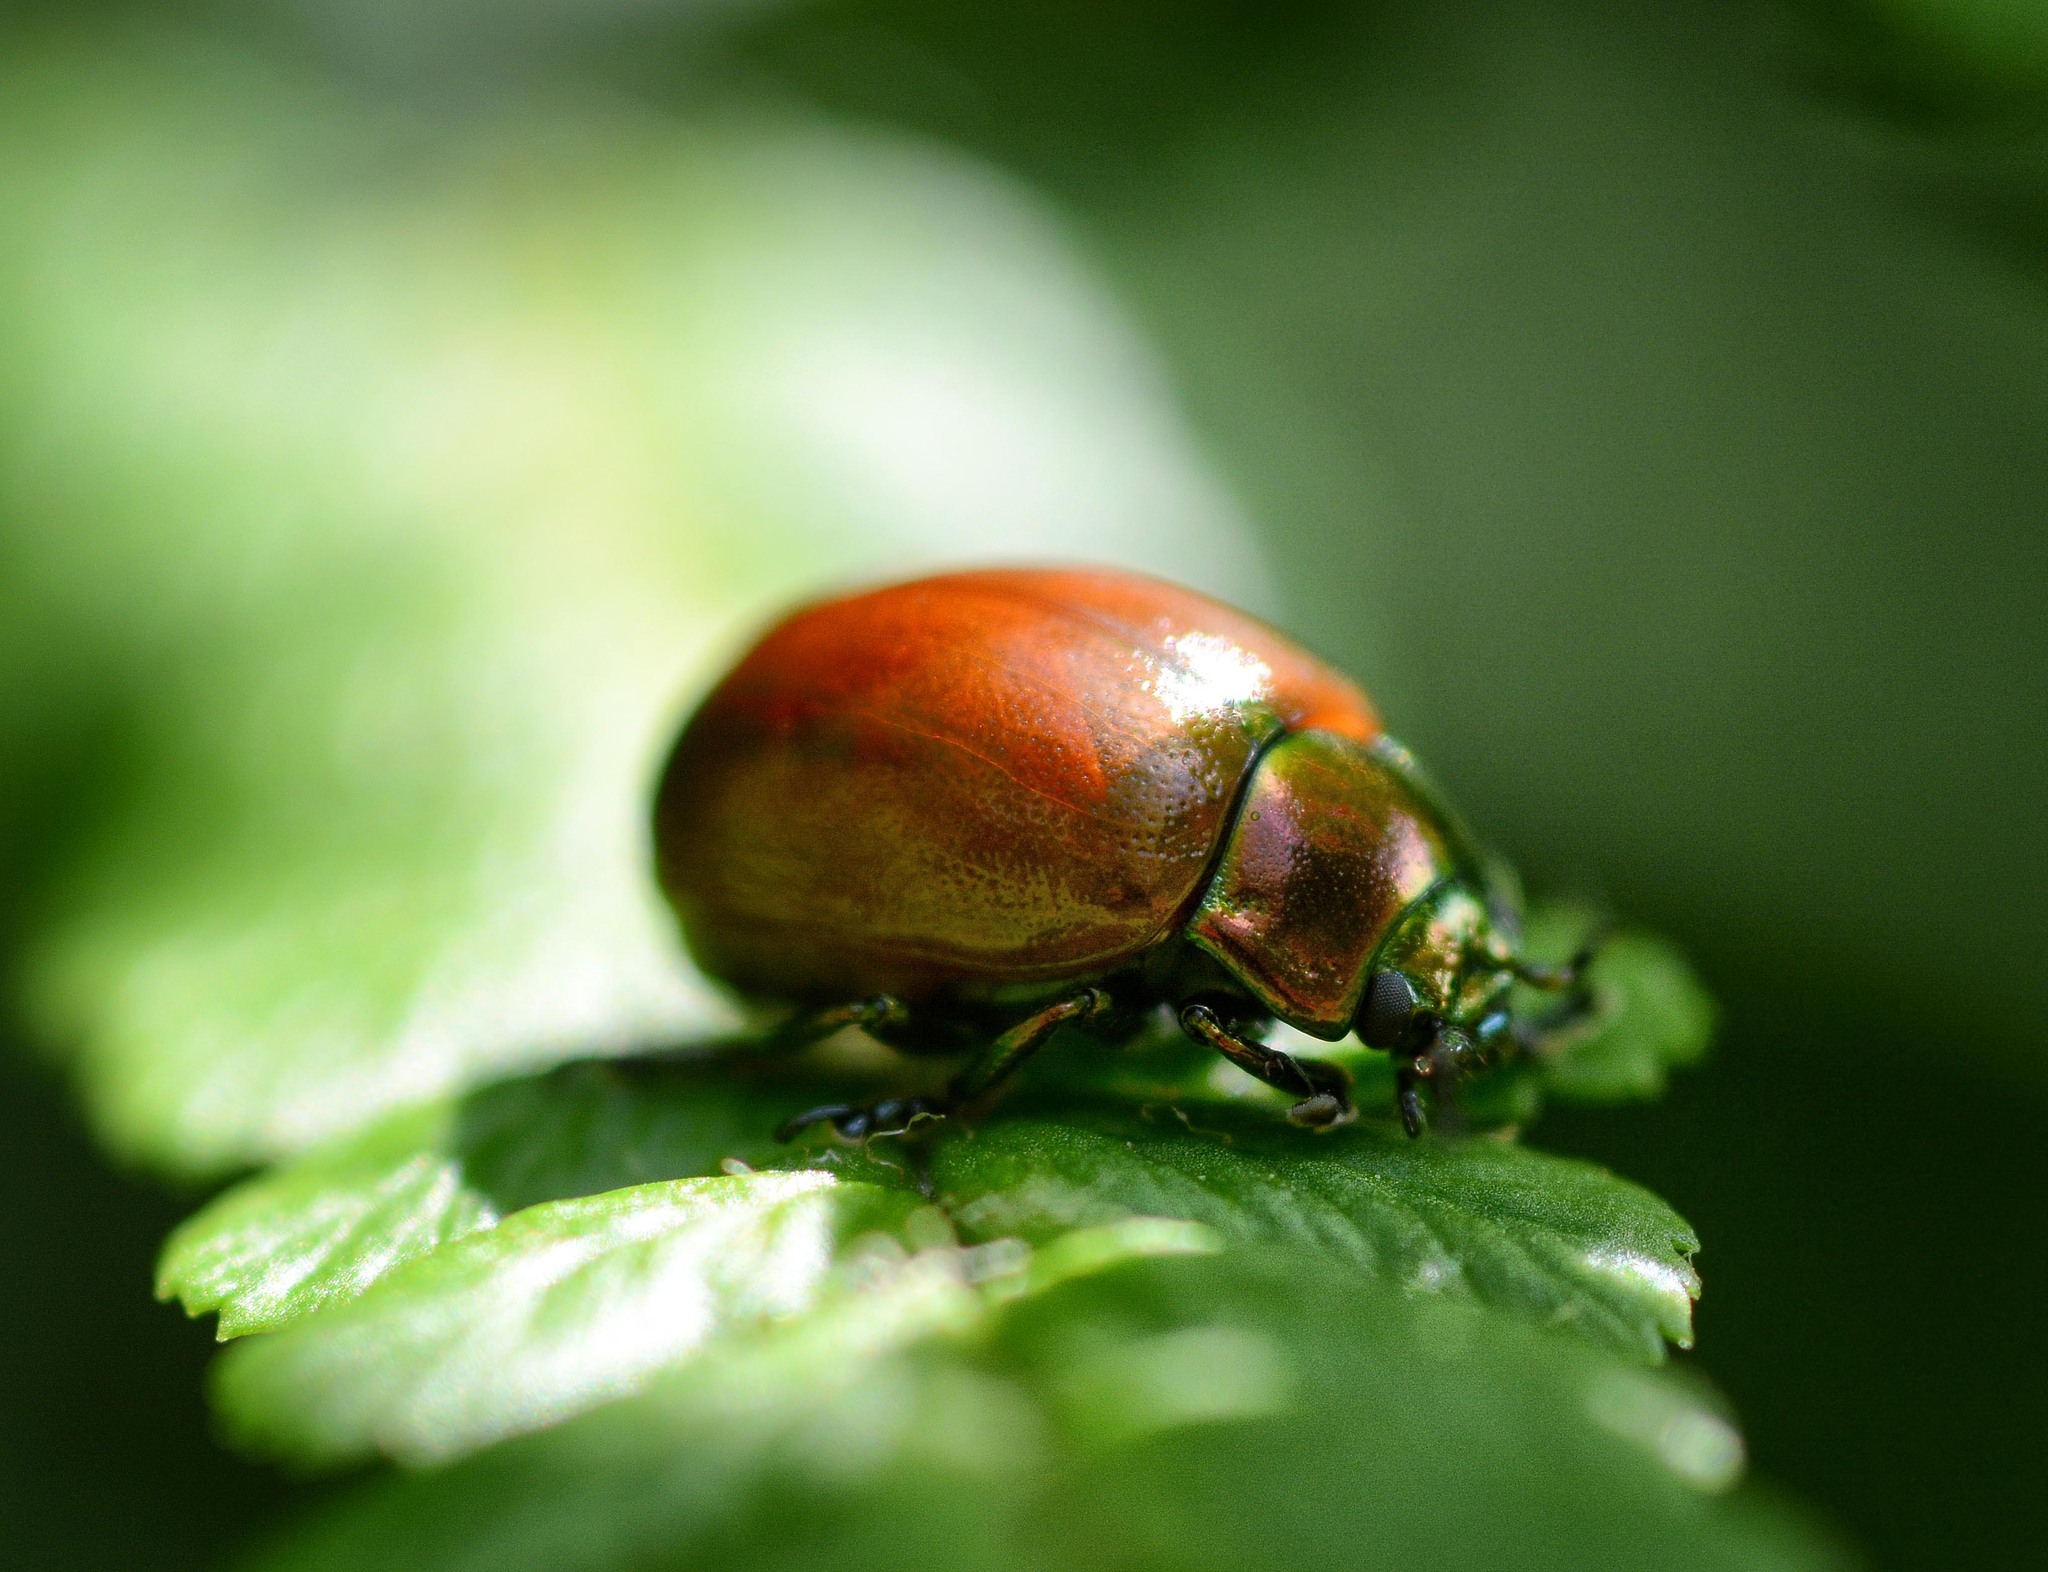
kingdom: Animalia
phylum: Arthropoda
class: Insecta
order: Coleoptera
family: Chrysomelidae
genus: Chrysomela
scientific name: Chrysomela polita
